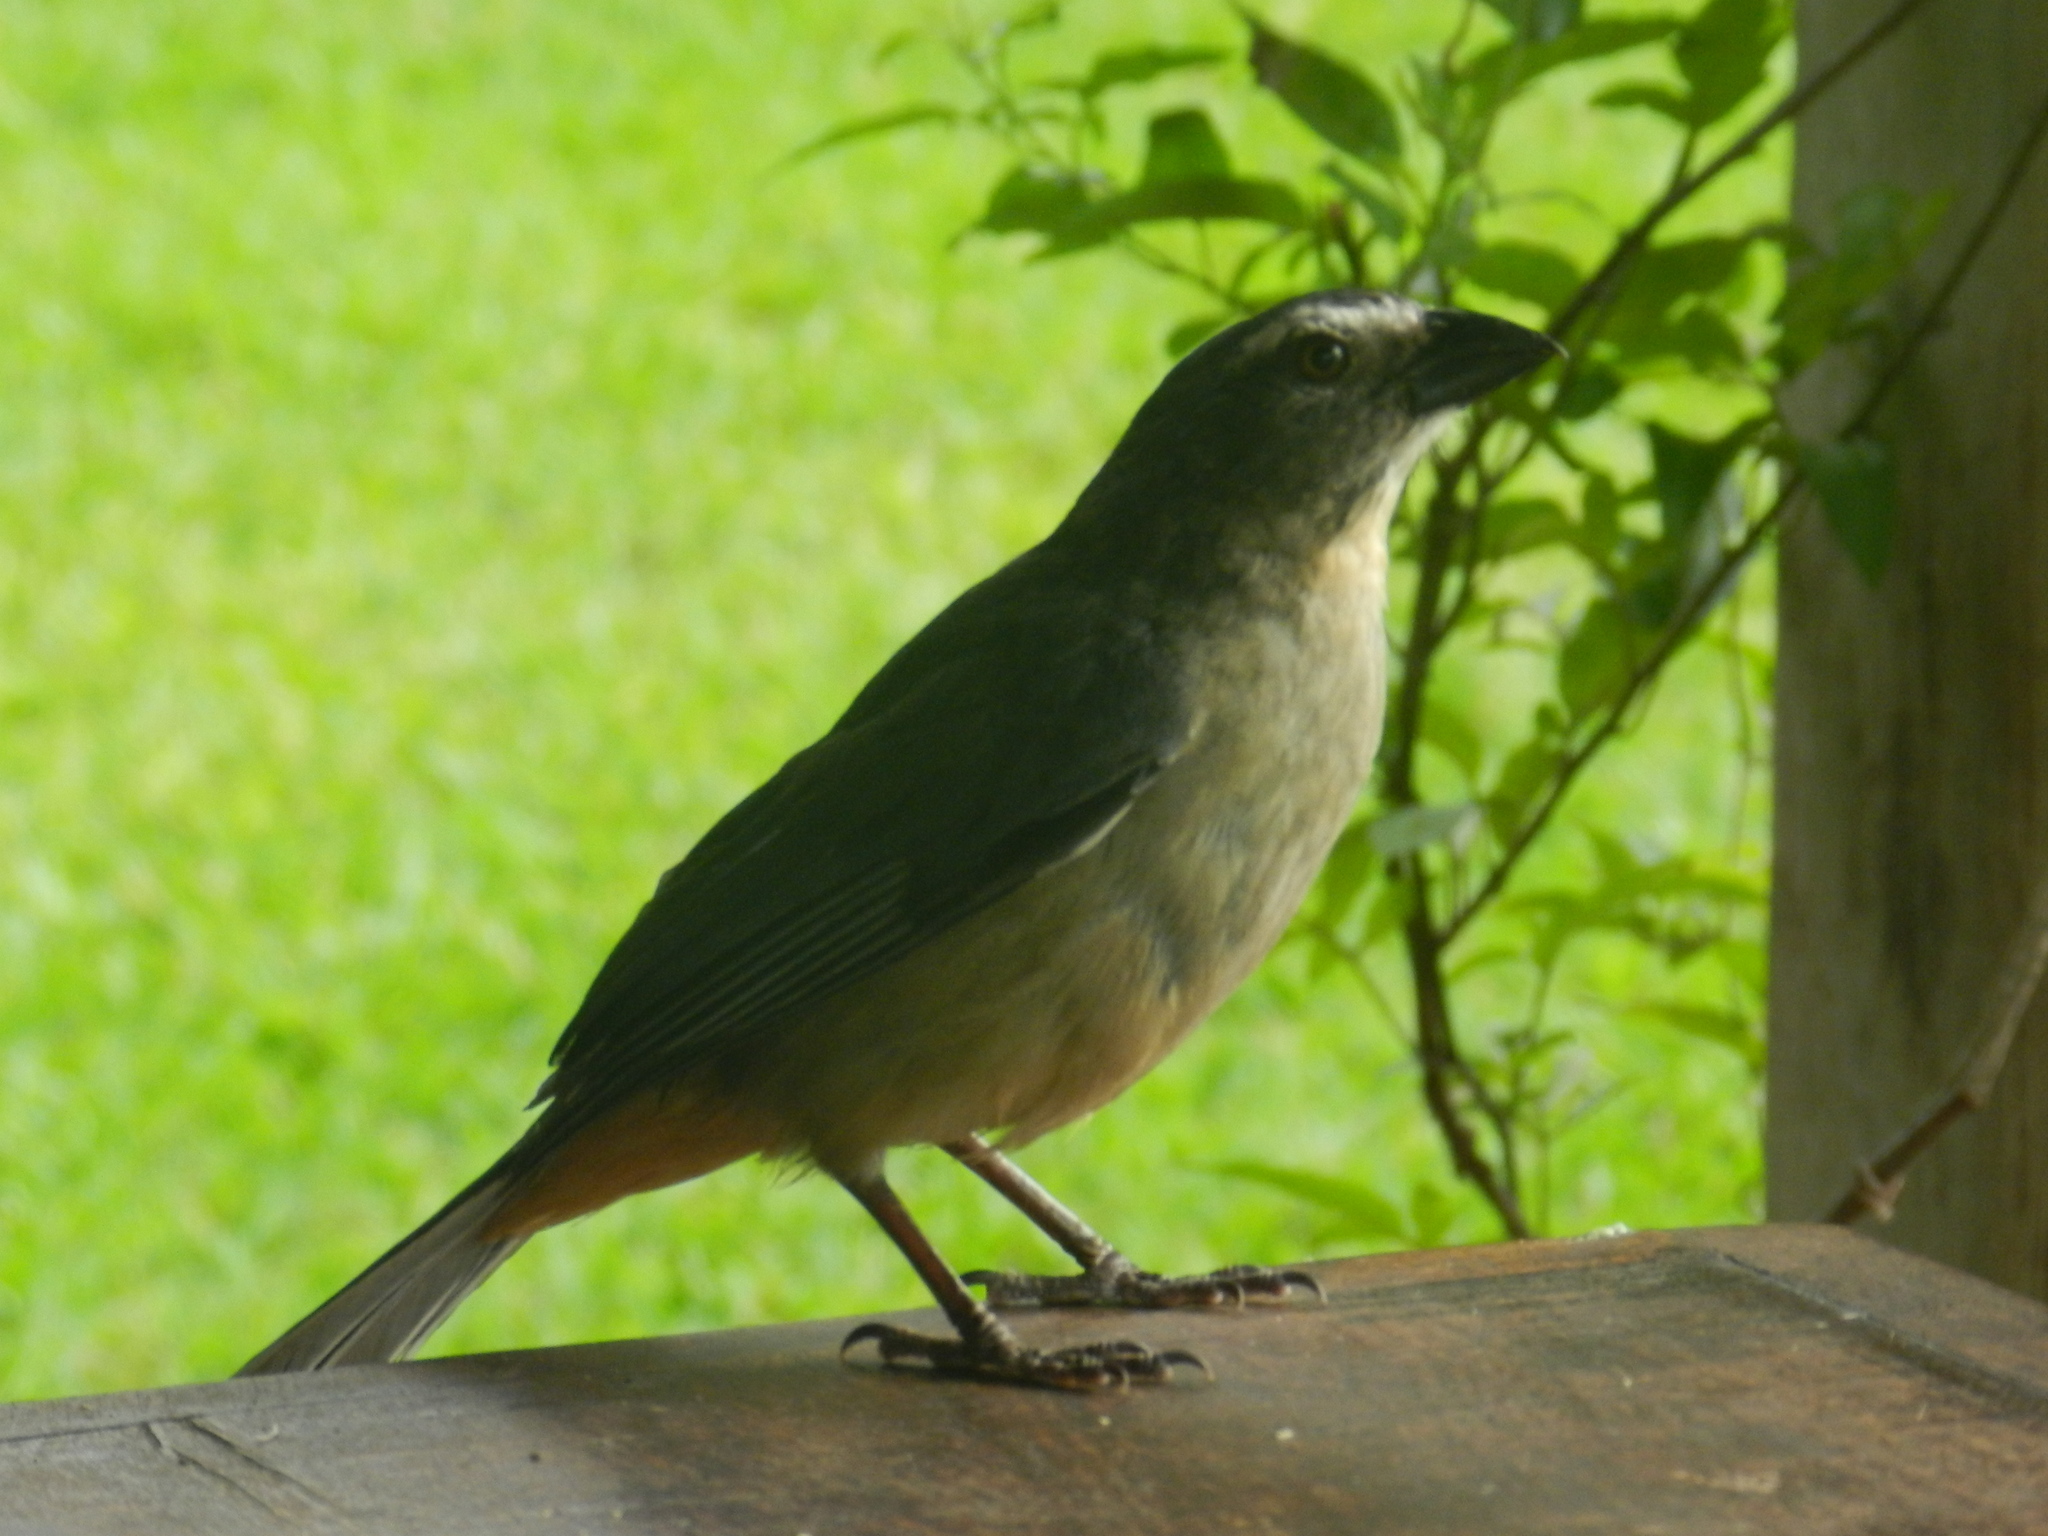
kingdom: Animalia
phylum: Chordata
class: Aves
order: Passeriformes
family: Thraupidae
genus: Saltator
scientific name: Saltator coerulescens
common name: Grayish saltator
